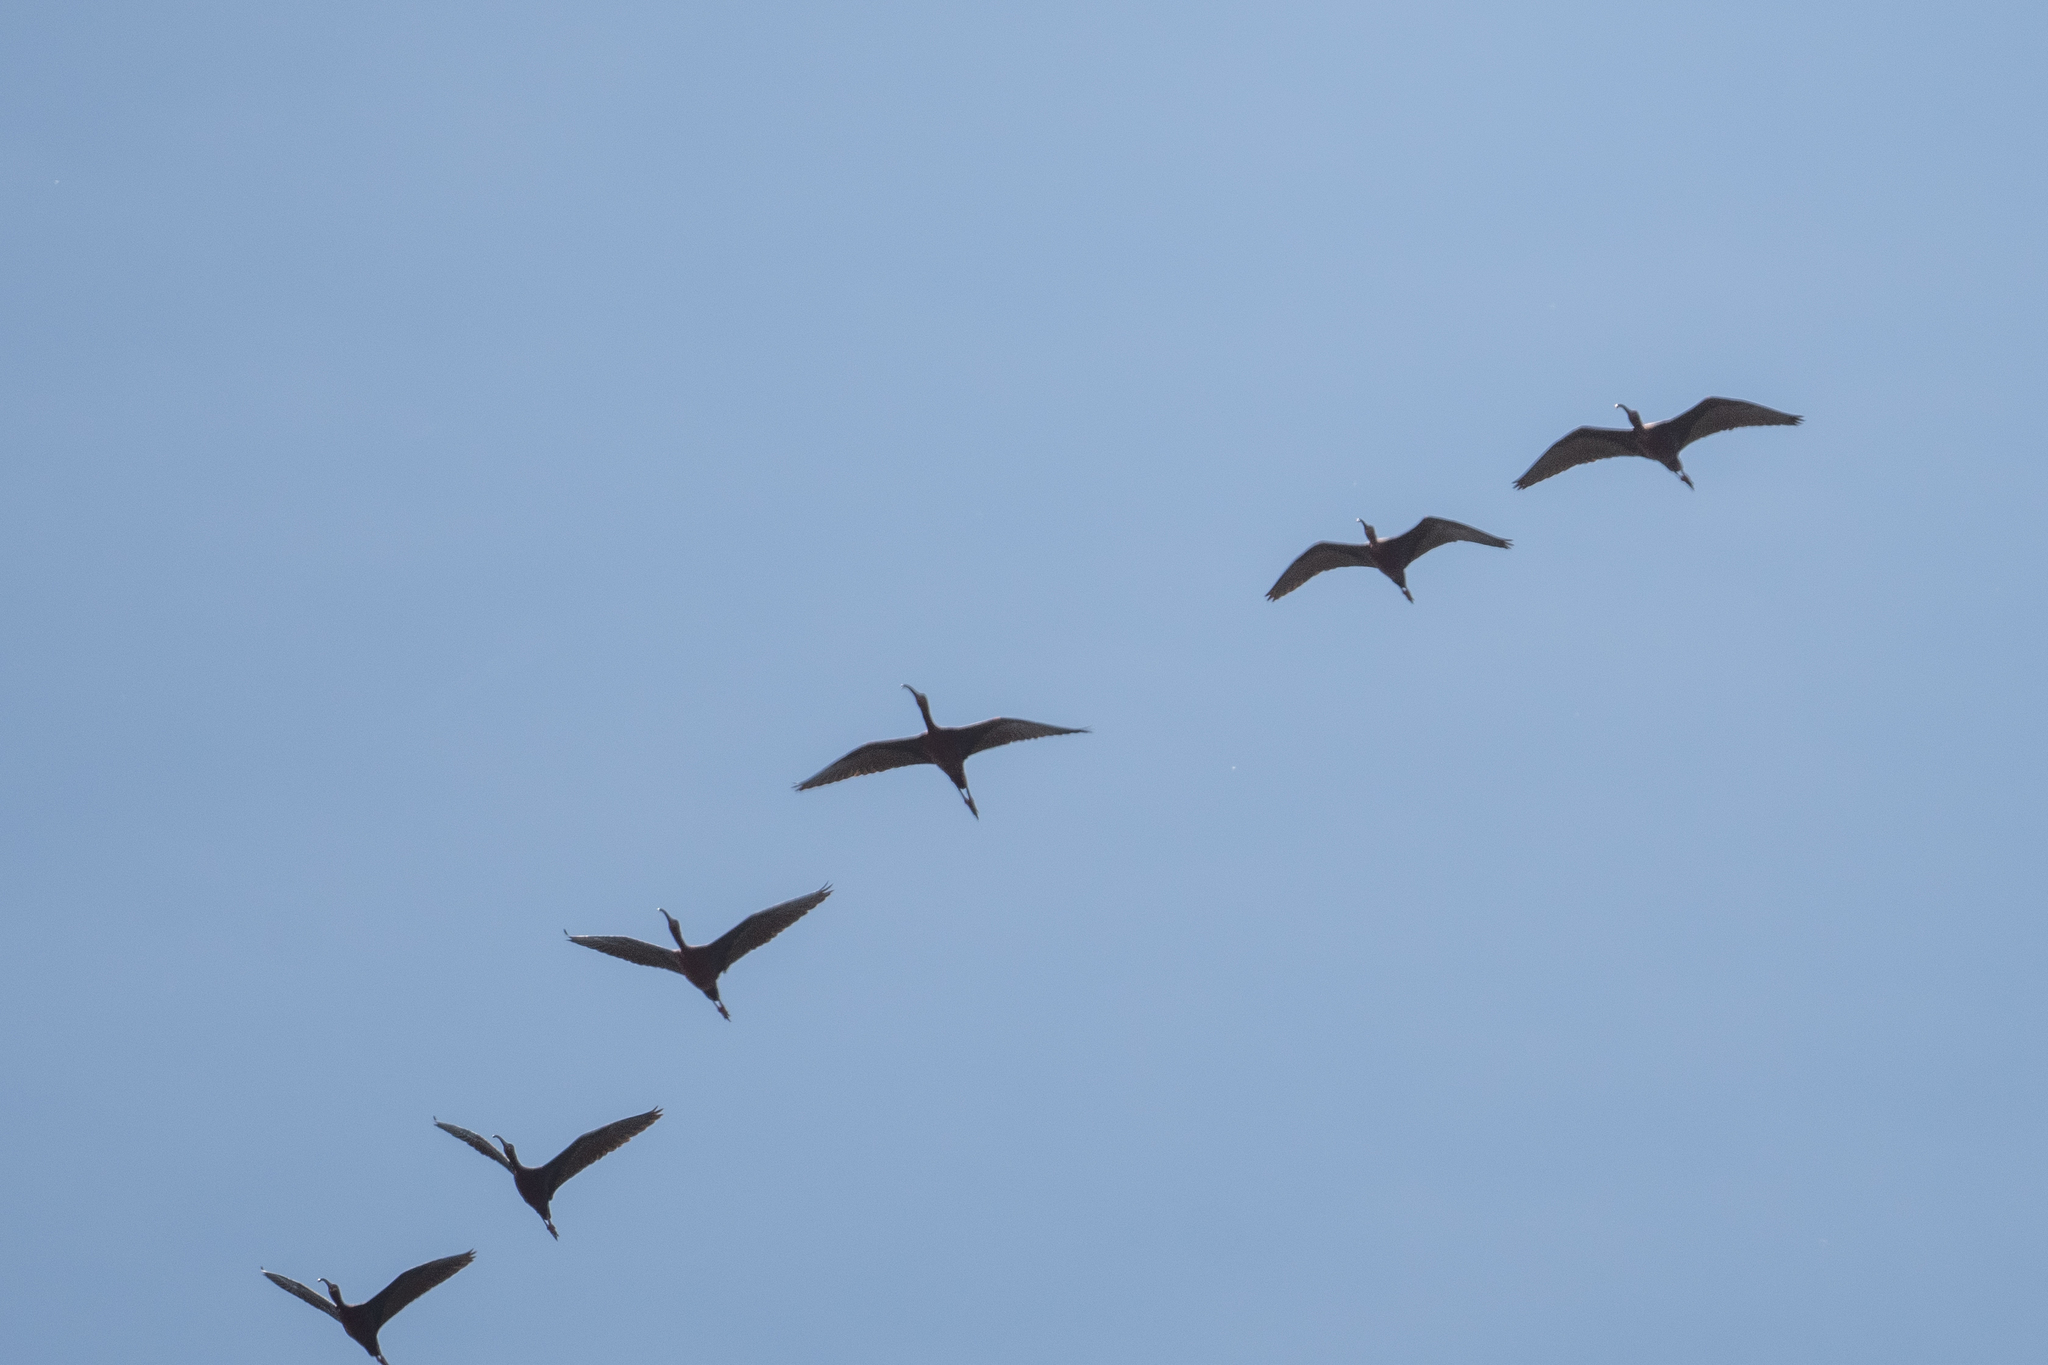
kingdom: Animalia
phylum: Chordata
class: Aves
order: Pelecaniformes
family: Threskiornithidae
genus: Plegadis
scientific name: Plegadis chihi
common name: White-faced ibis
